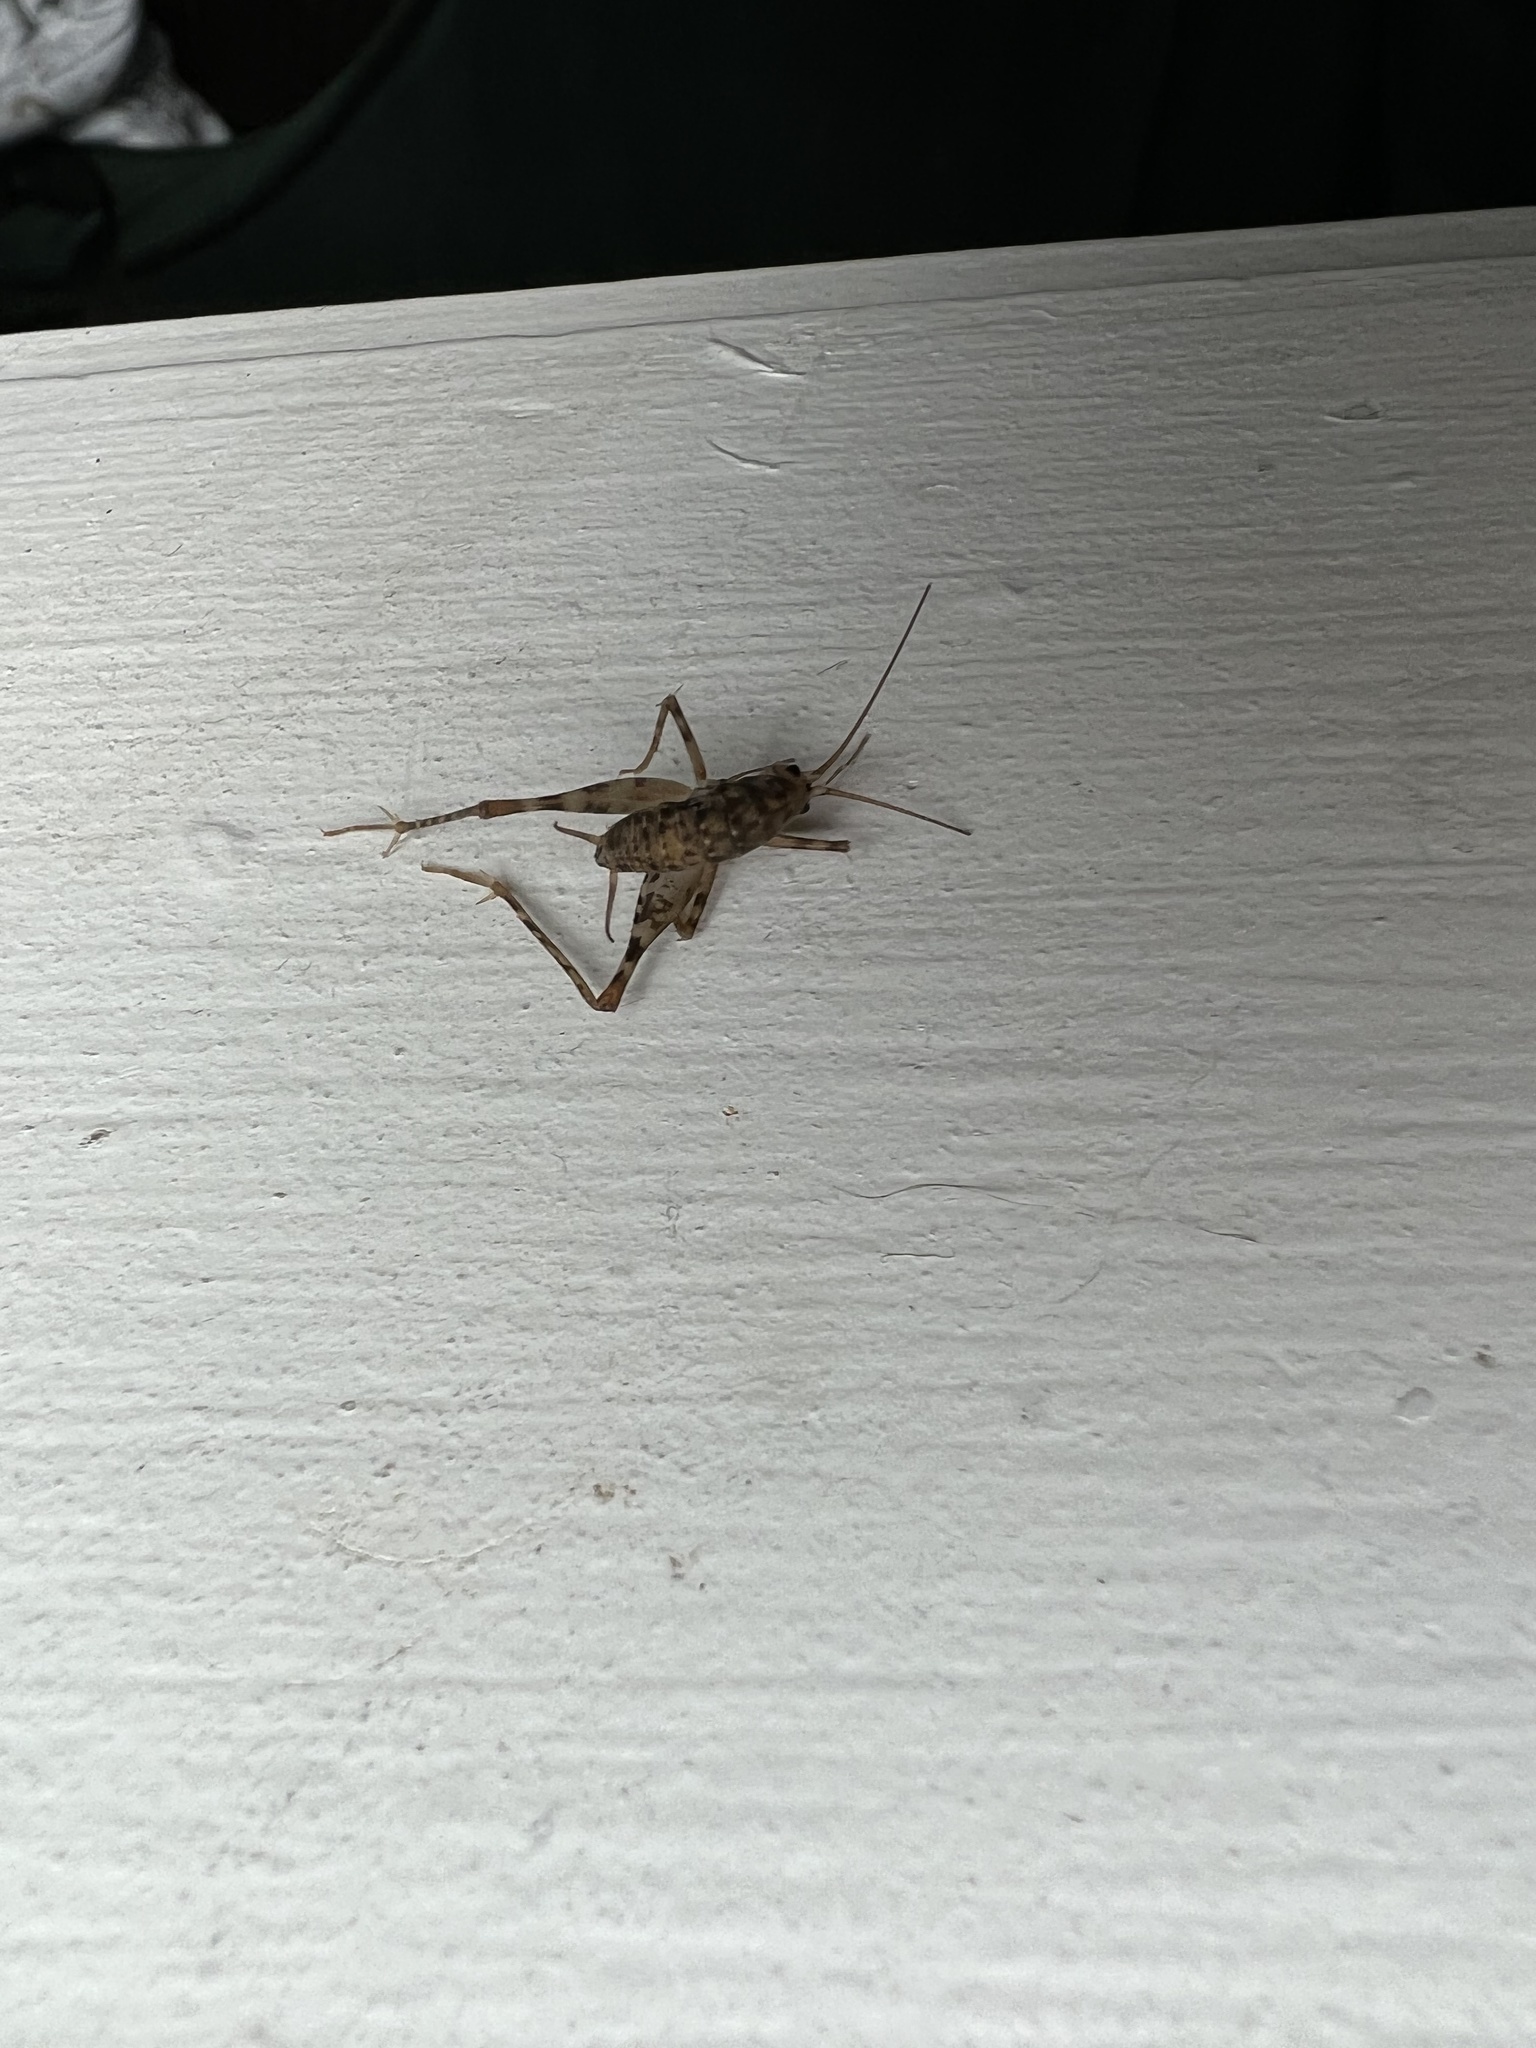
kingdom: Animalia
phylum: Arthropoda
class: Insecta
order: Orthoptera
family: Rhaphidophoridae
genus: Tachycines
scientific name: Tachycines asynamorus
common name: Greenhouse camel cricket
